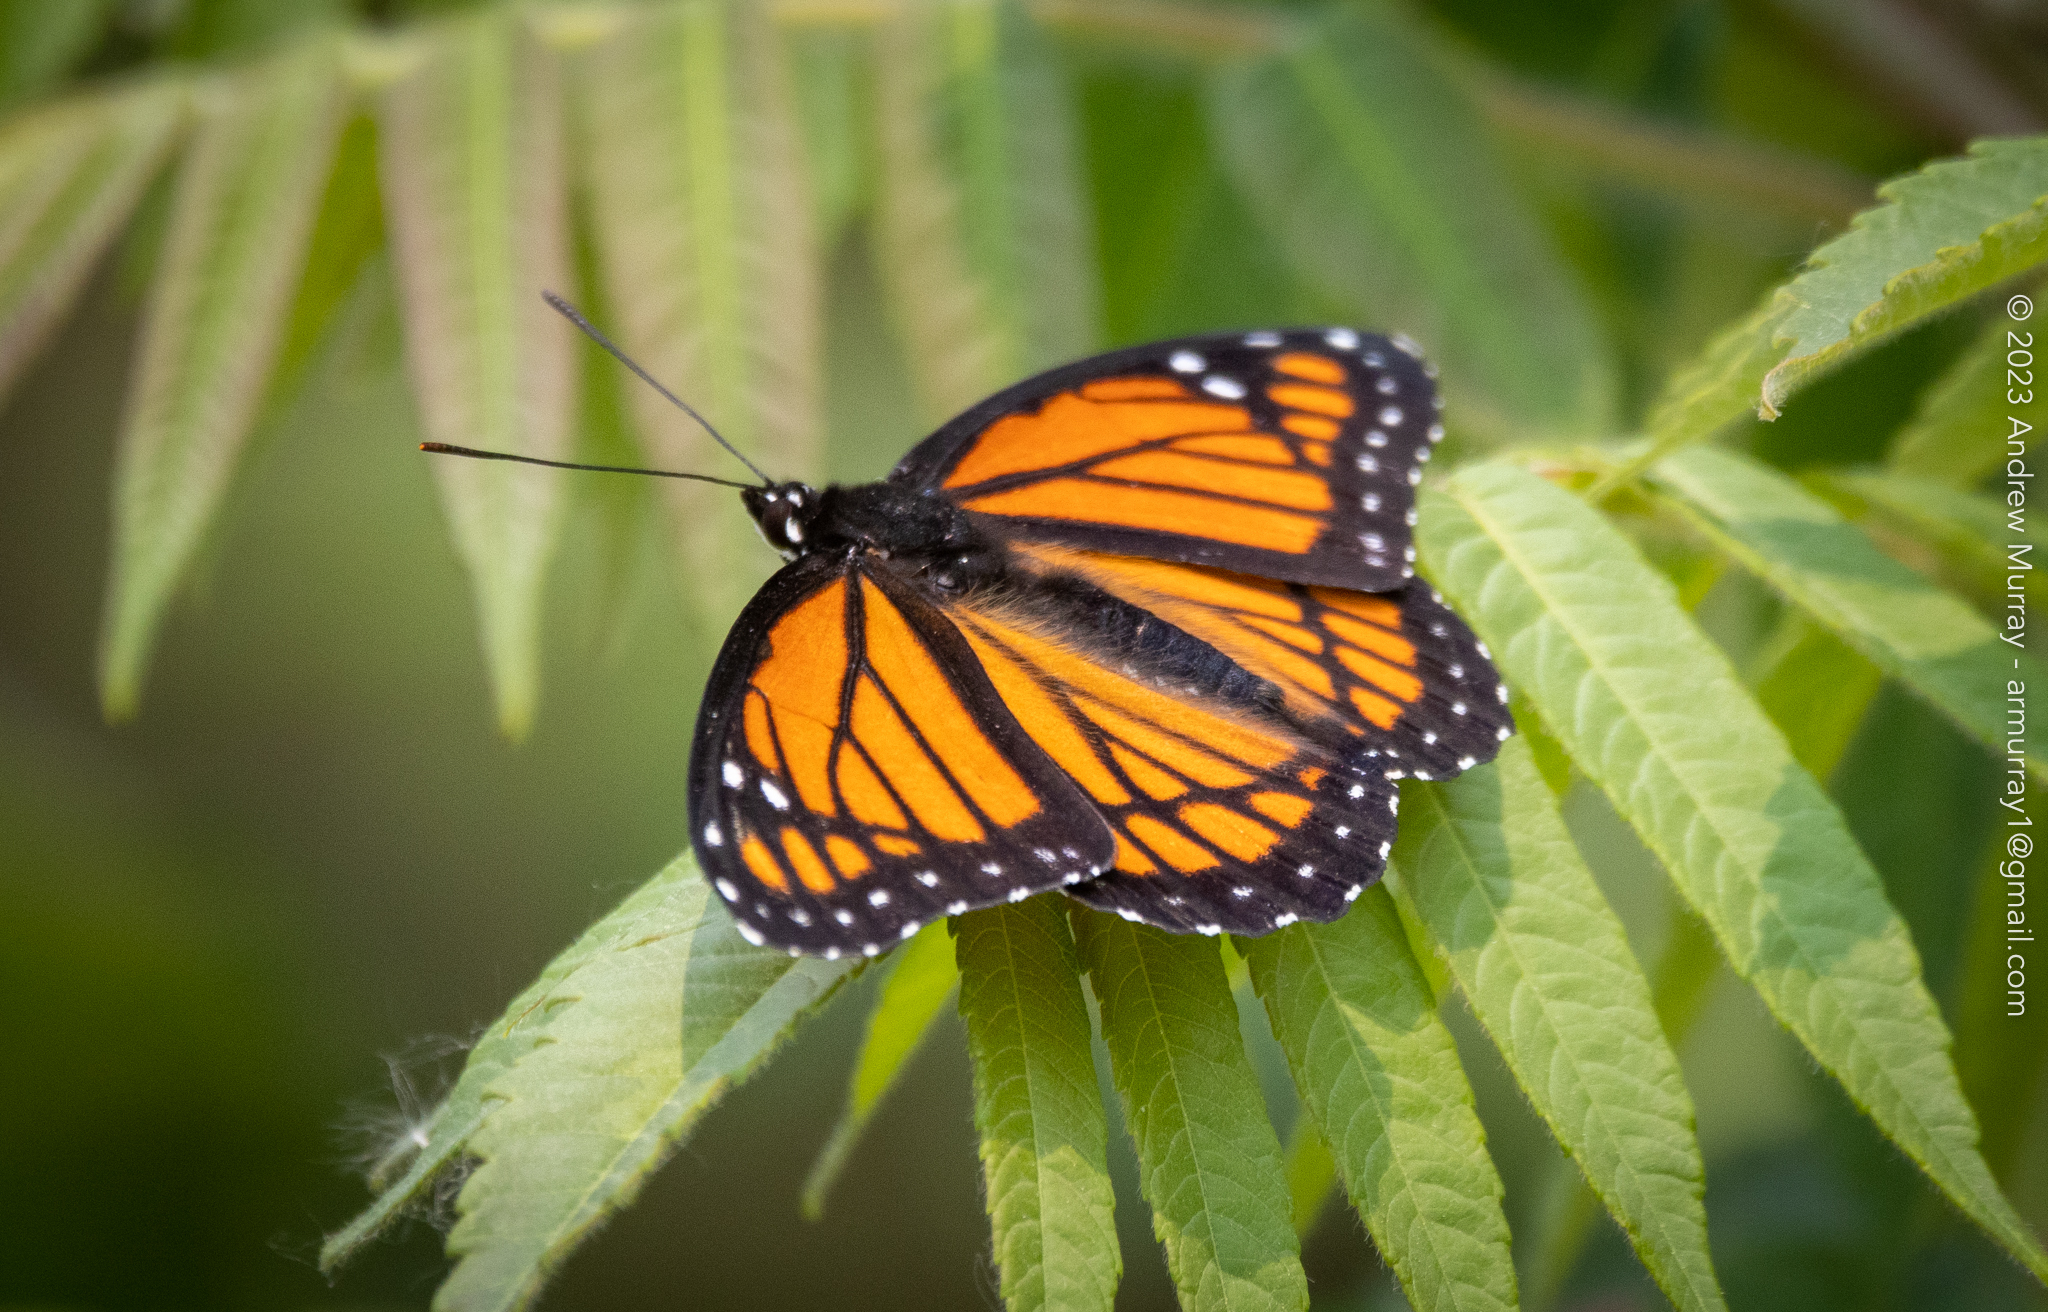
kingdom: Animalia
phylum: Arthropoda
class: Insecta
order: Lepidoptera
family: Nymphalidae
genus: Limenitis
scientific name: Limenitis archippus
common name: Viceroy
